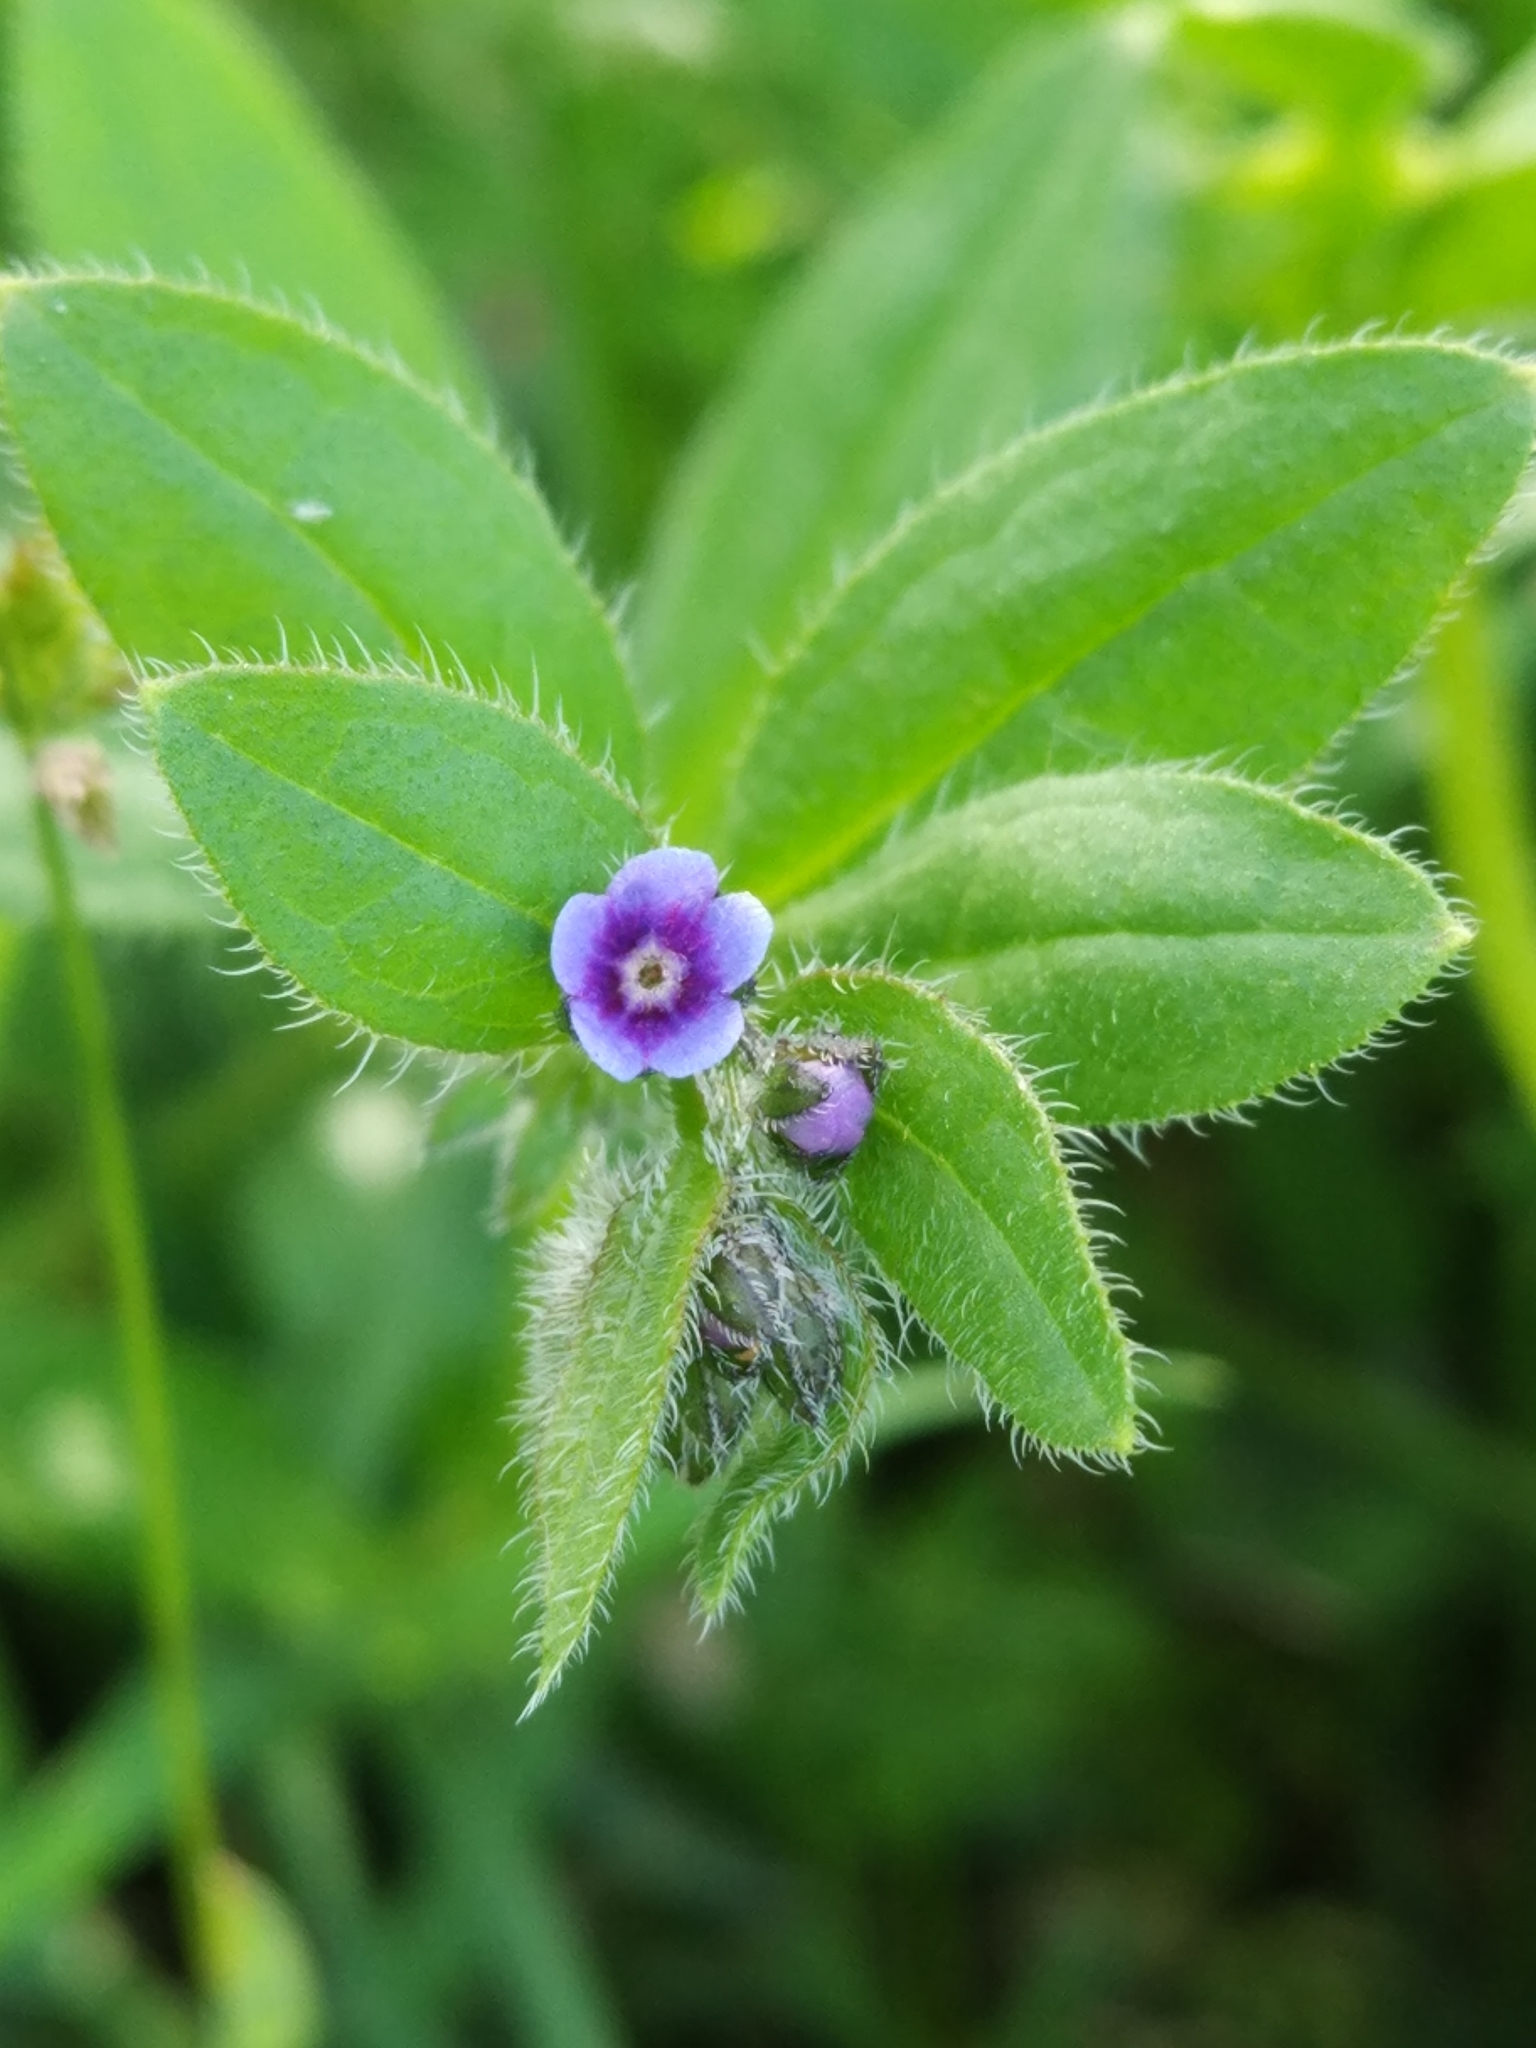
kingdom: Plantae
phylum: Tracheophyta
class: Magnoliopsida
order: Boraginales
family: Boraginaceae
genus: Asperugo
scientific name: Asperugo procumbens
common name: Madwort
